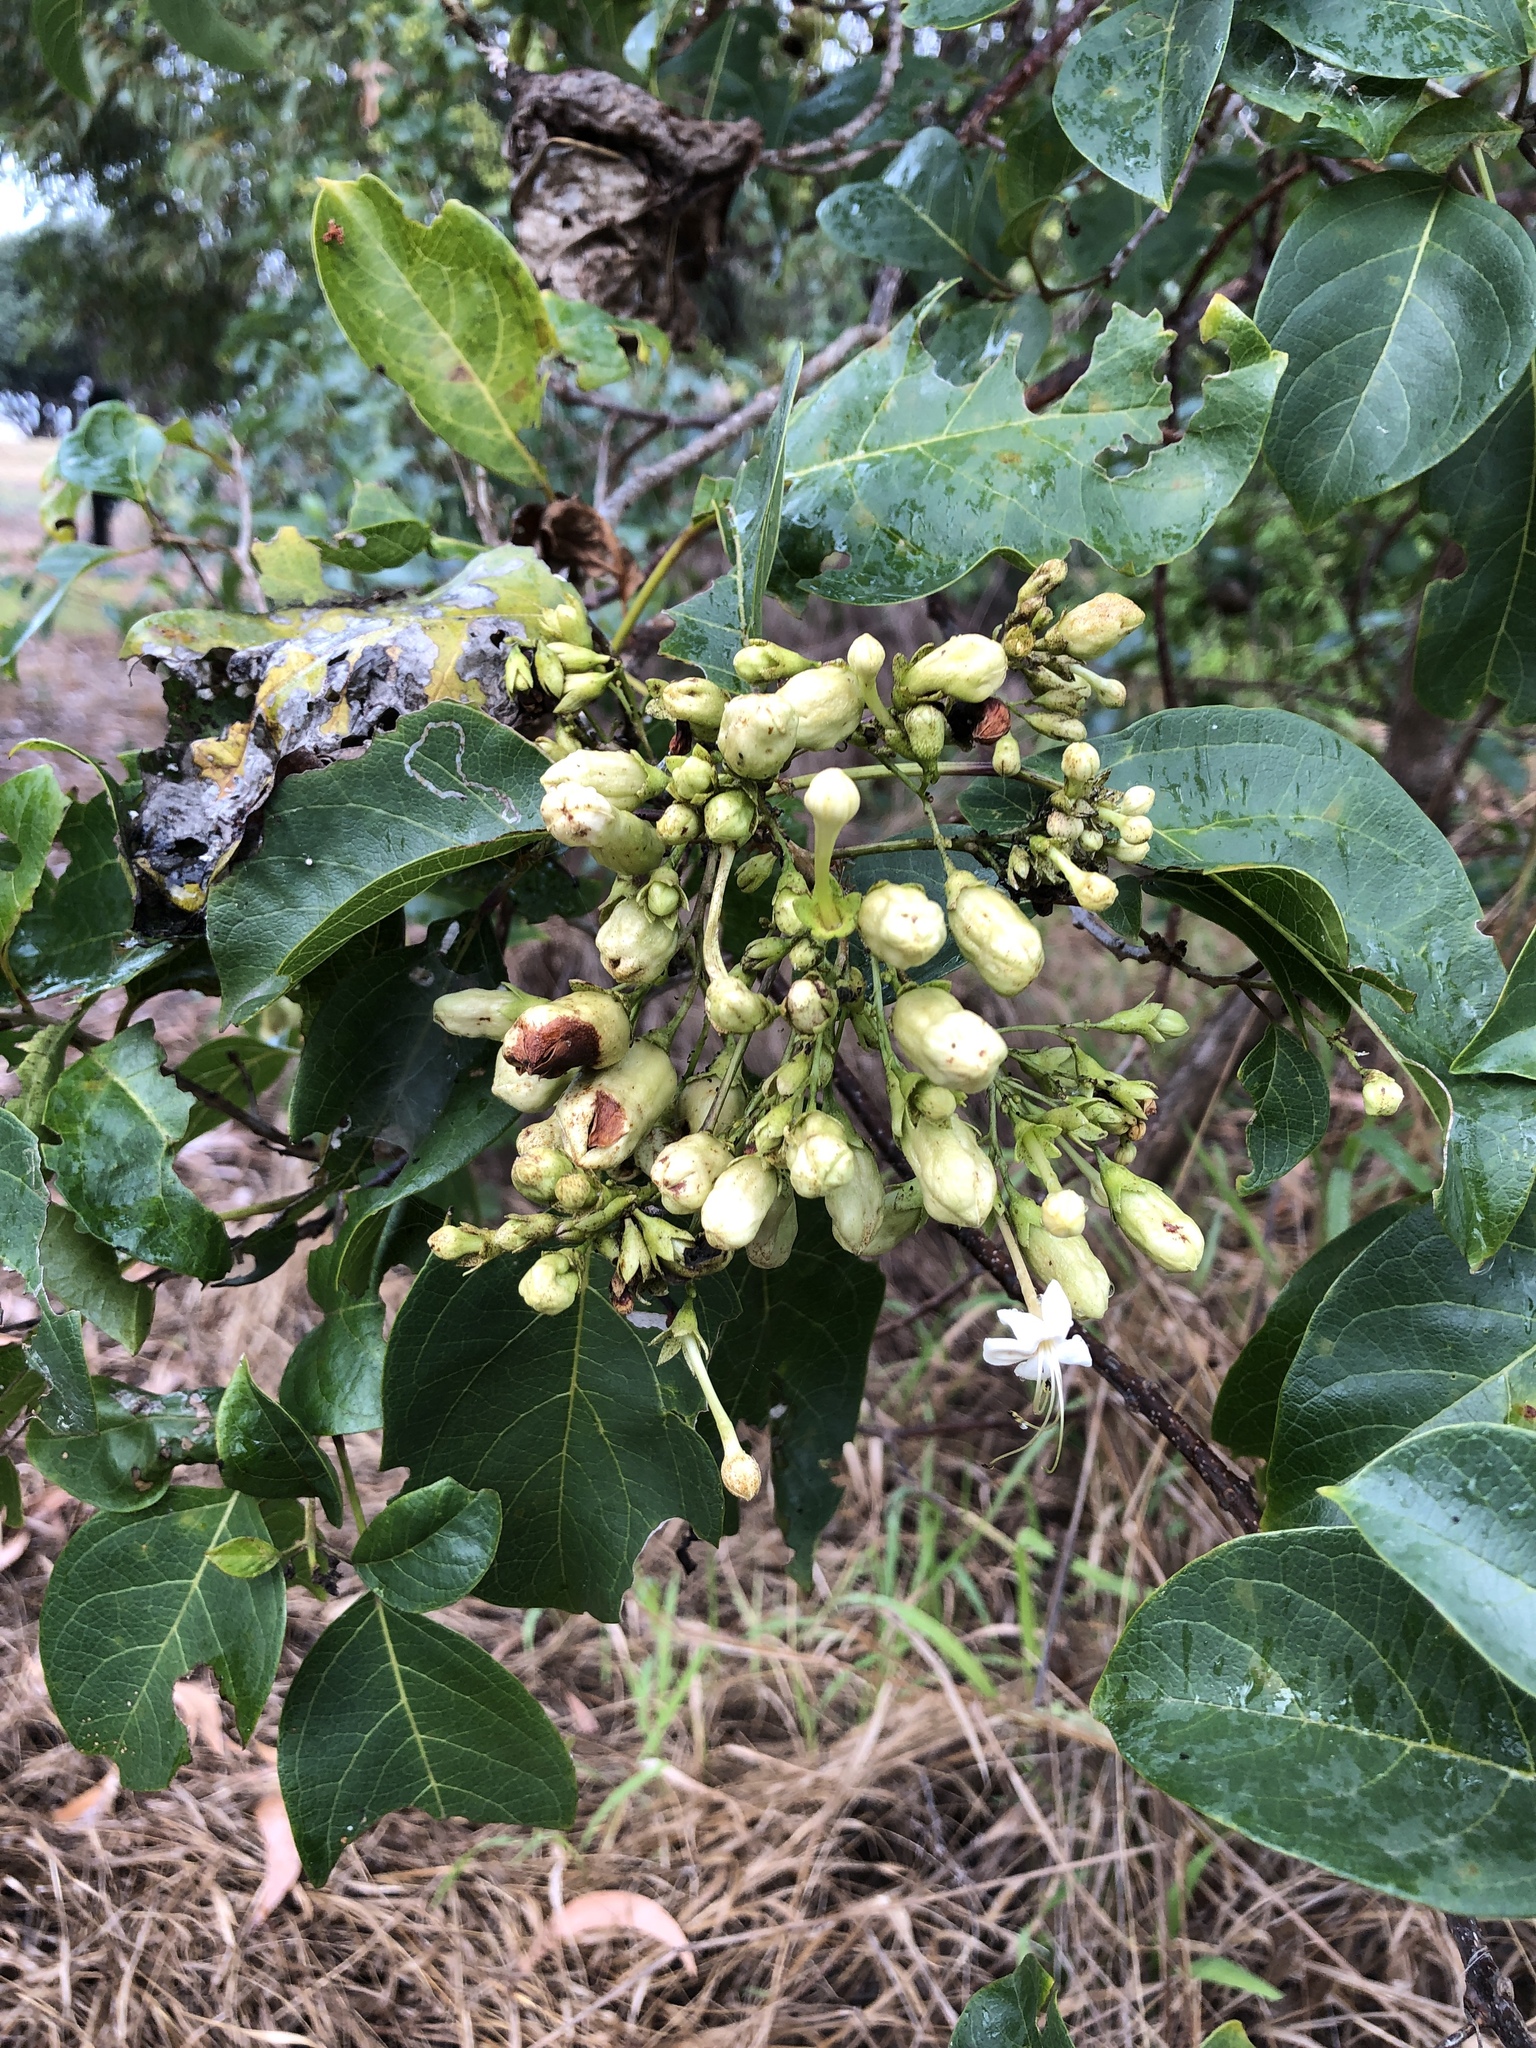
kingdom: Plantae
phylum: Tracheophyta
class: Magnoliopsida
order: Lamiales
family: Lamiaceae
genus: Clerodendrum
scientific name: Clerodendrum floribundum
